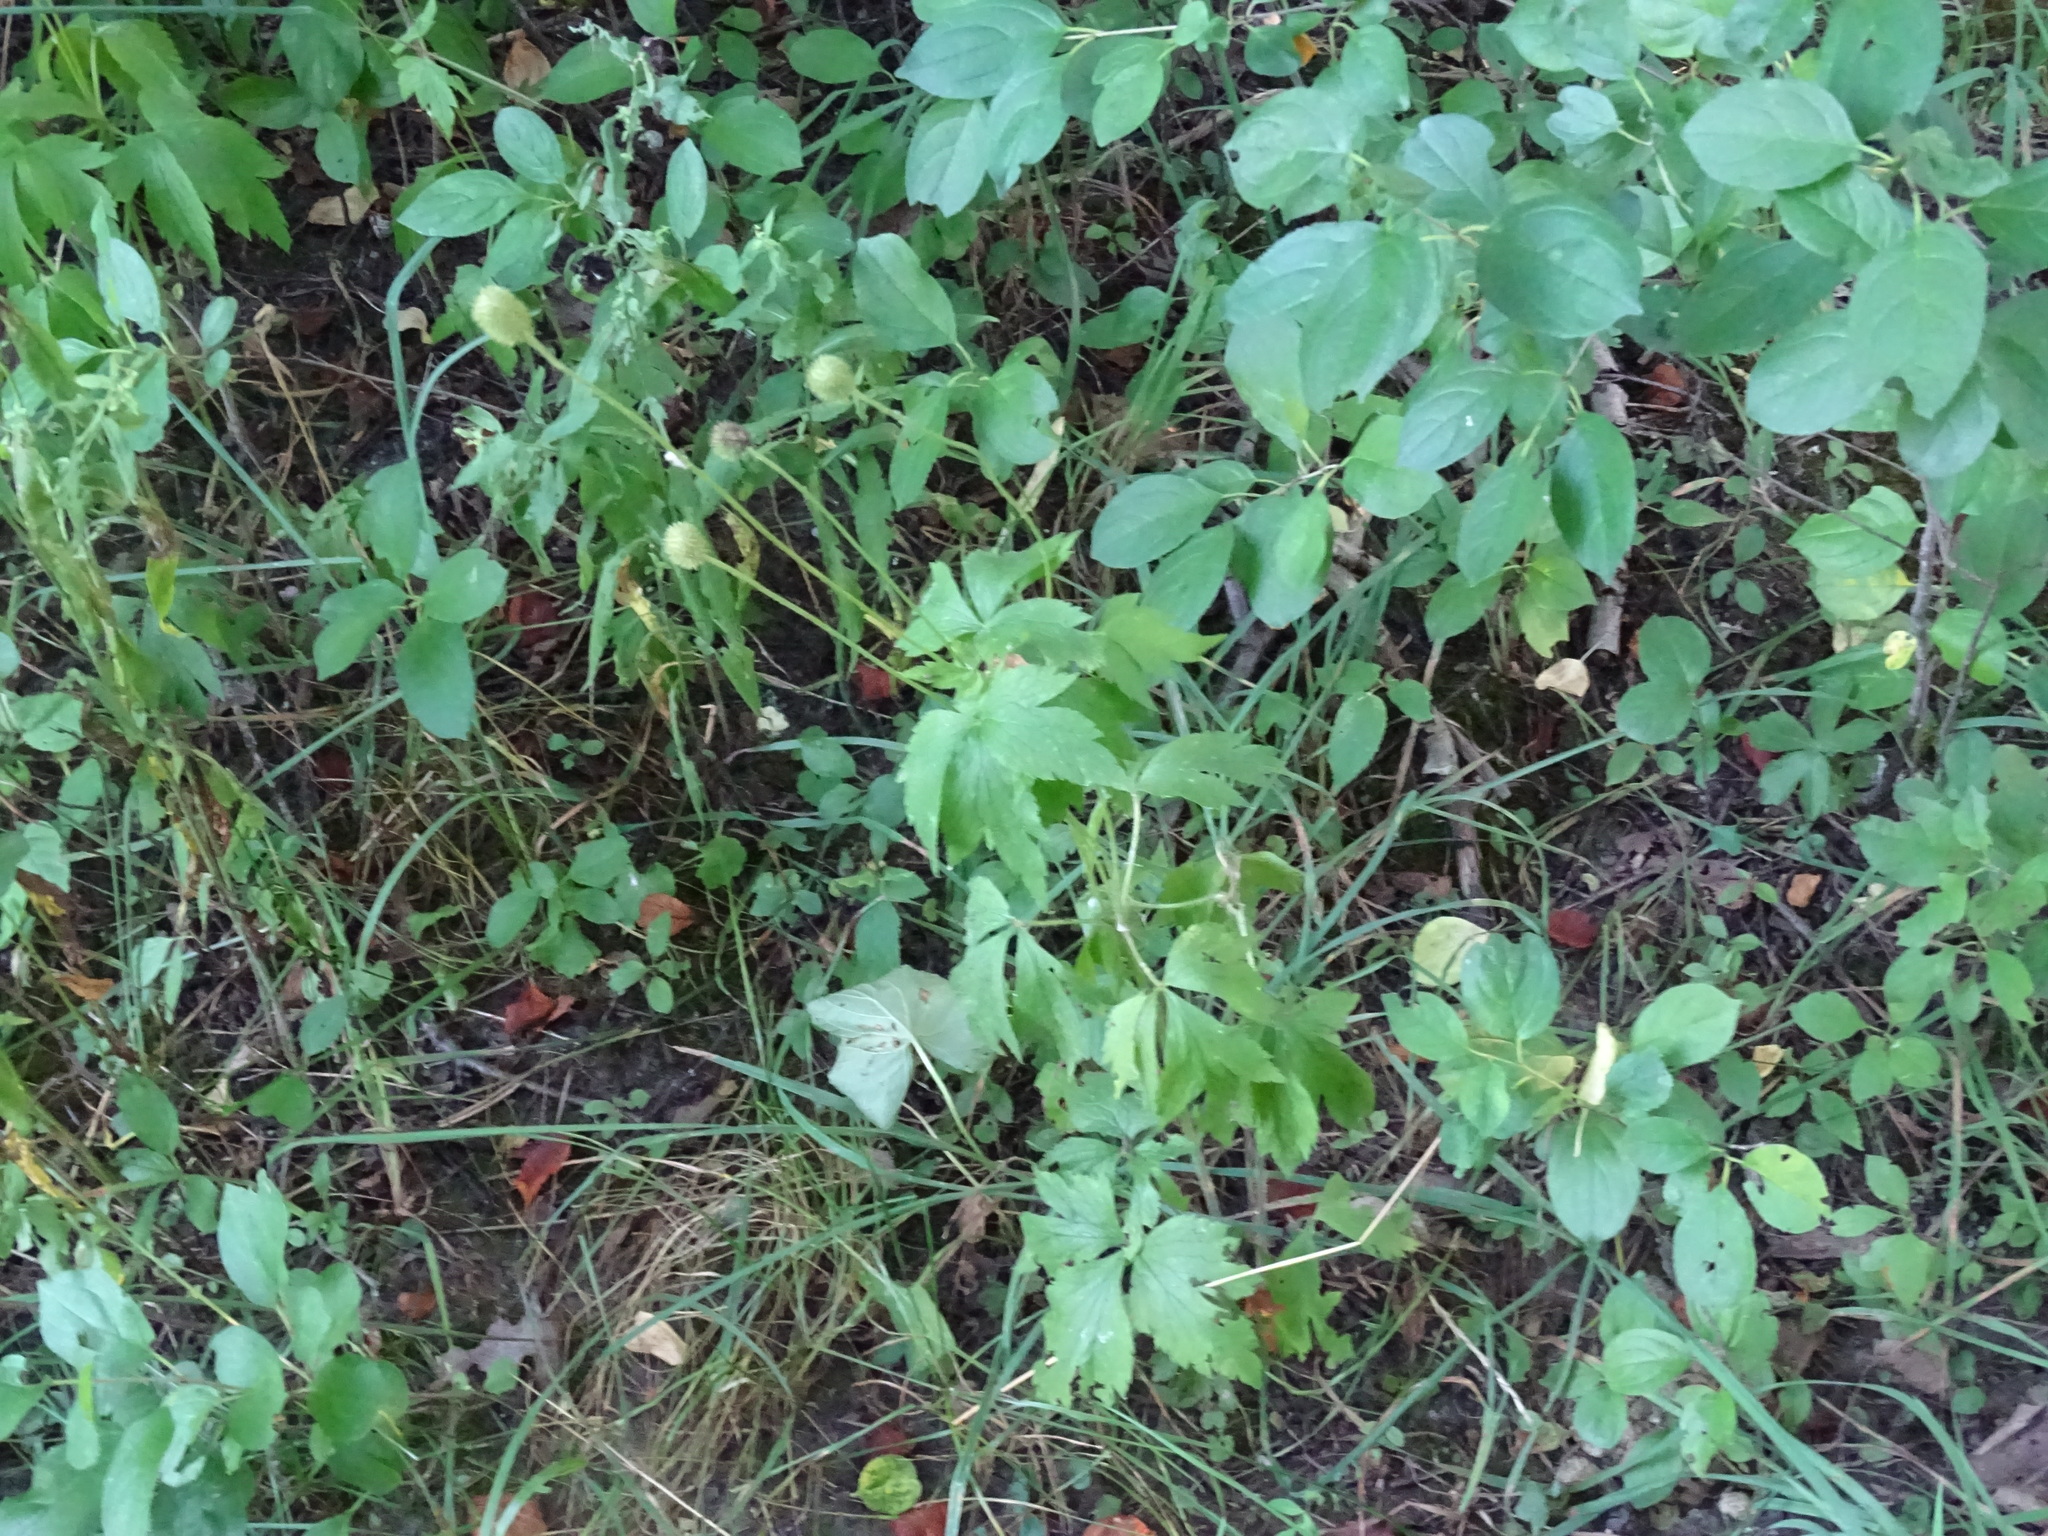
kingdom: Plantae
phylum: Tracheophyta
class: Magnoliopsida
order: Ranunculales
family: Ranunculaceae
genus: Anemone
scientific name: Anemone virginiana
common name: Tall anemone
